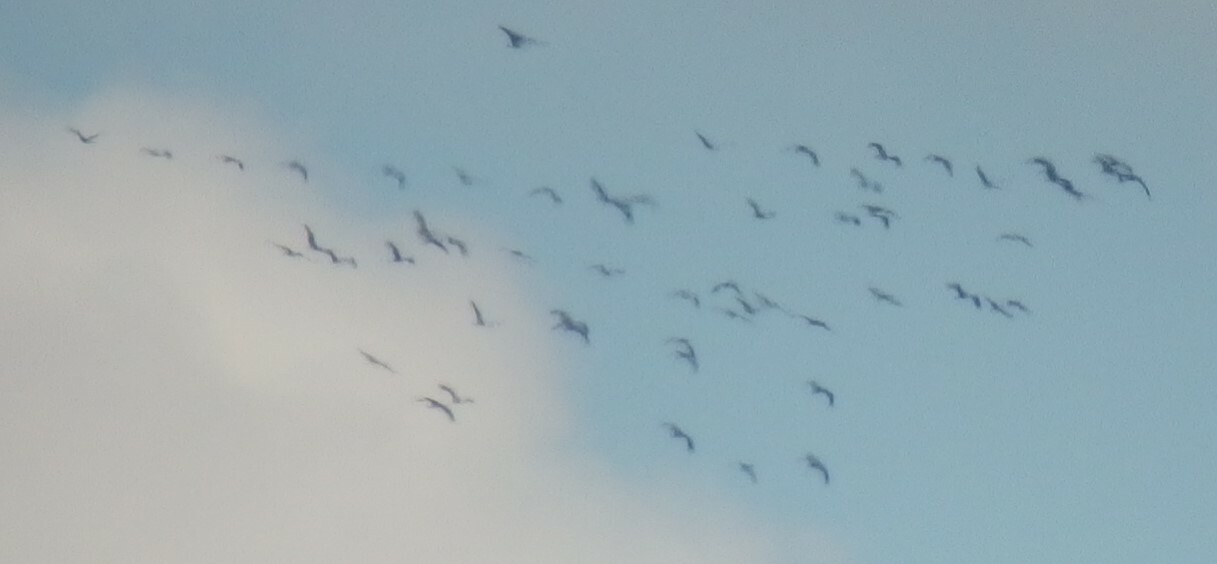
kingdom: Animalia
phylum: Chordata
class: Aves
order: Gruiformes
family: Gruidae
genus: Grus
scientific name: Grus grus
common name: Common crane
